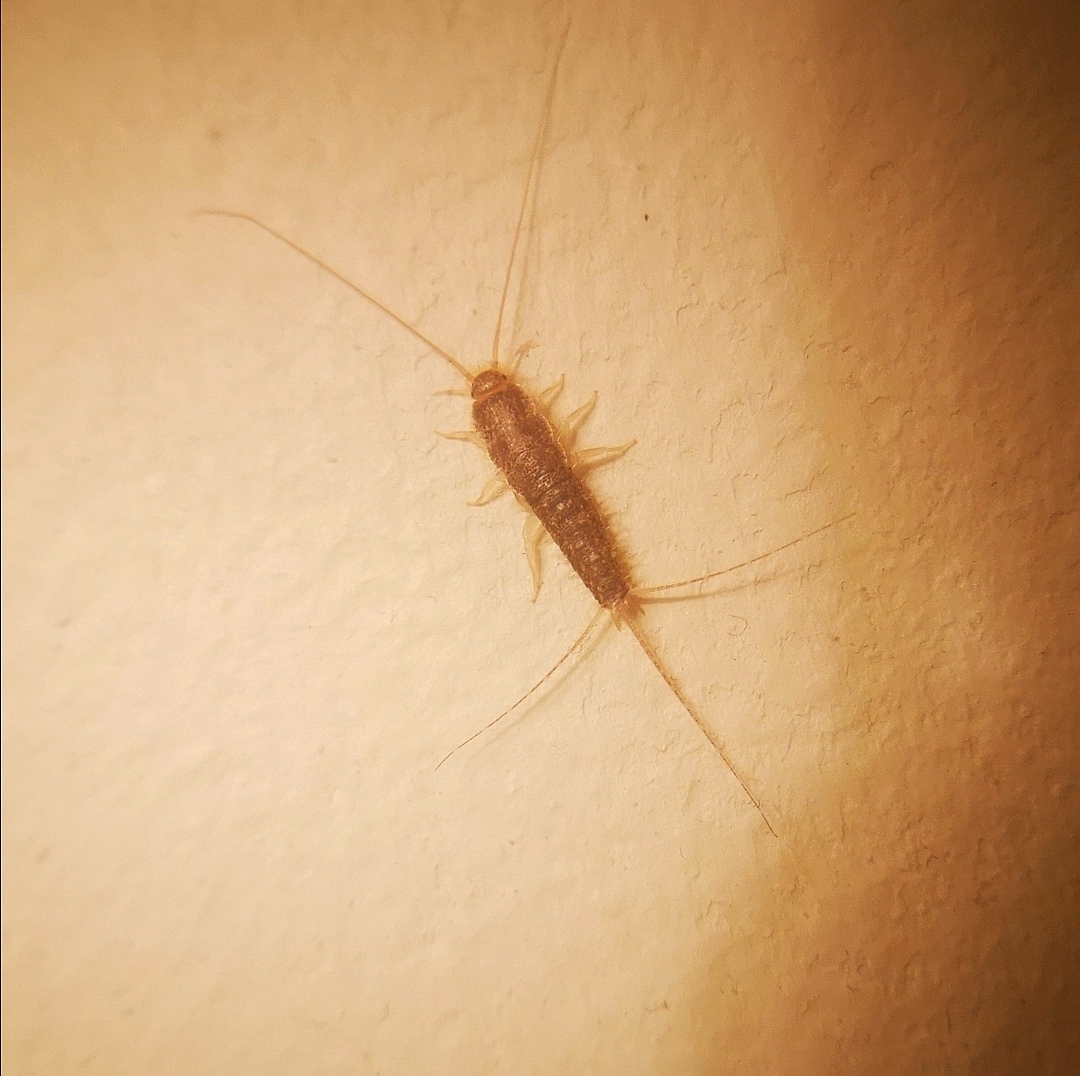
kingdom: Animalia
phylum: Arthropoda
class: Insecta
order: Zygentoma
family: Lepismatidae
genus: Ctenolepisma
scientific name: Ctenolepisma longicaudatum
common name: Silverfish
